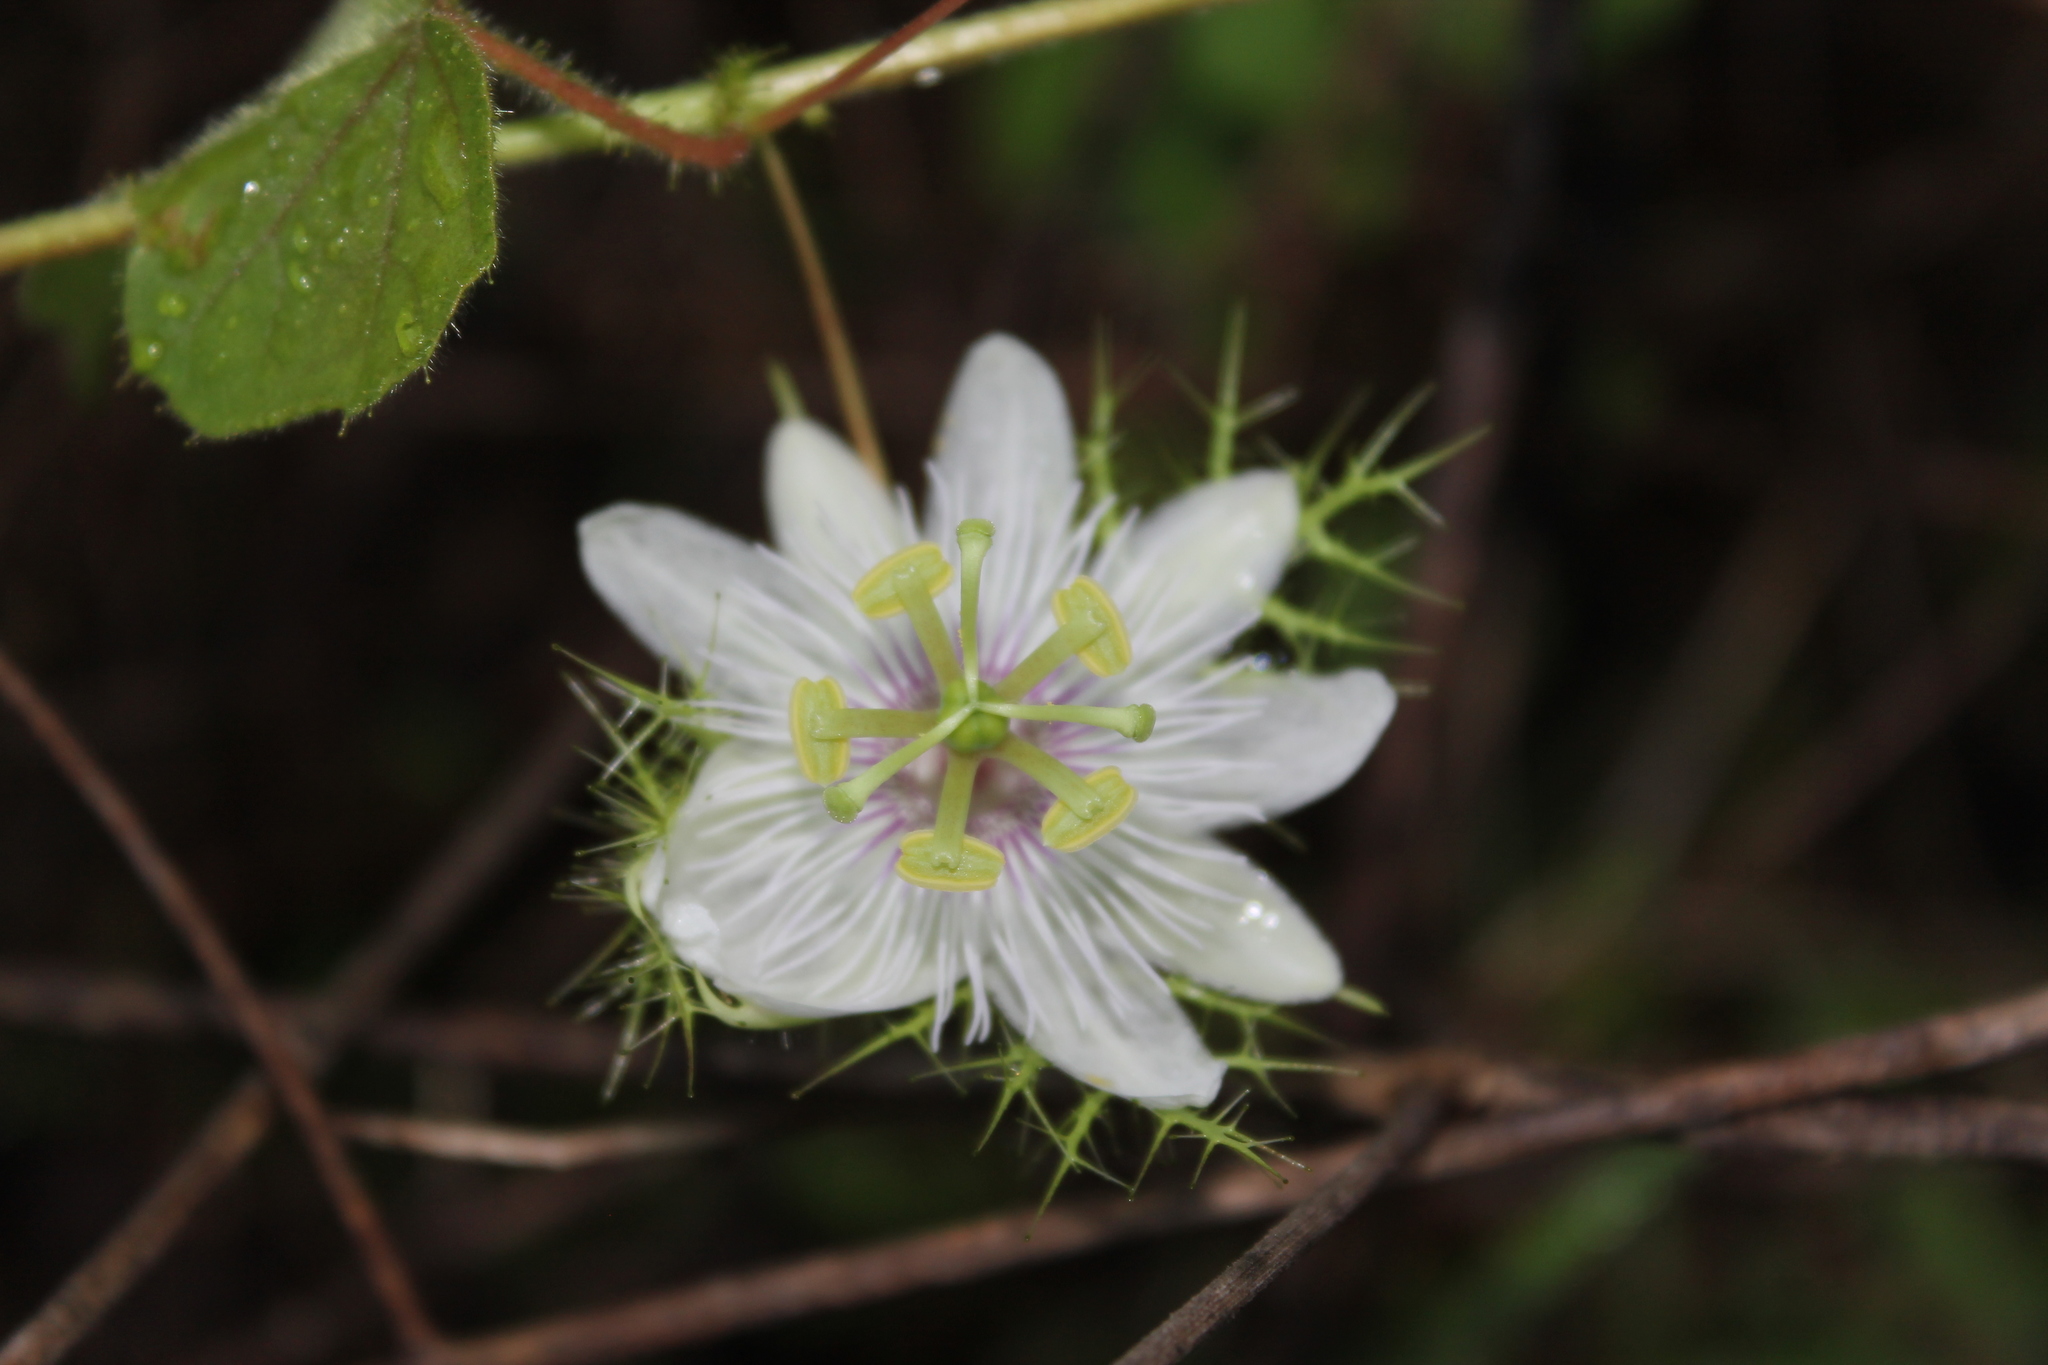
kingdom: Plantae
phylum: Tracheophyta
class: Magnoliopsida
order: Malpighiales
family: Passifloraceae
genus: Passiflora
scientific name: Passiflora foetida
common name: Fetid passionflower
